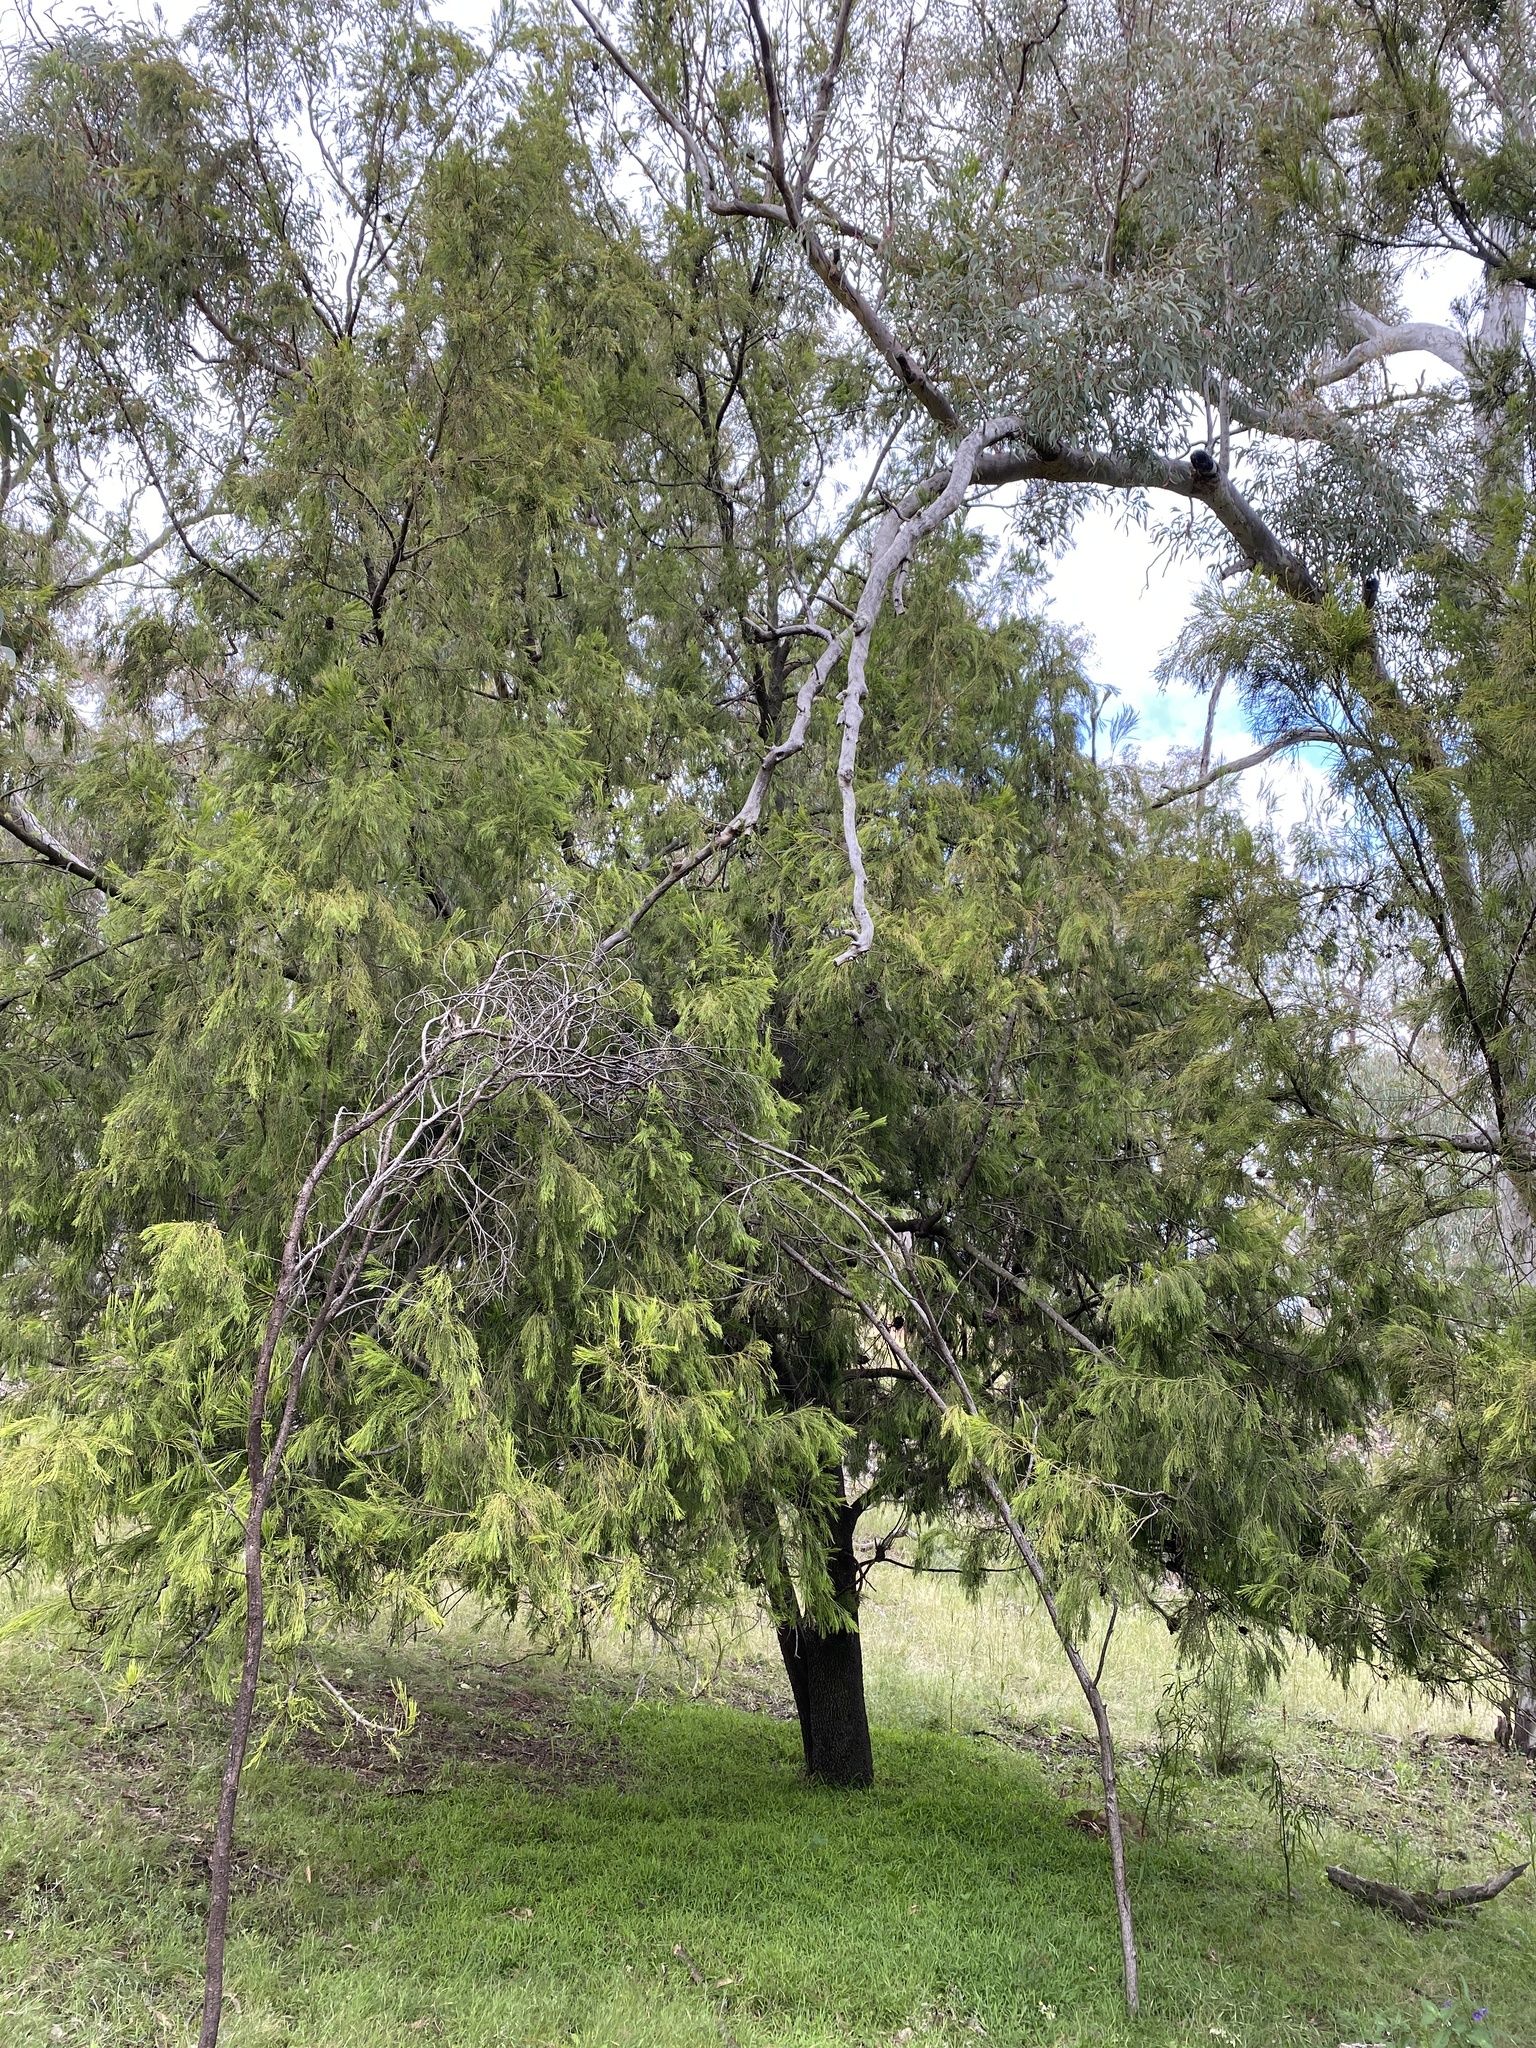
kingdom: Plantae
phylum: Tracheophyta
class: Magnoliopsida
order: Santalales
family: Santalaceae
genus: Exocarpos
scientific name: Exocarpos cupressiformis
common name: Cherry ballart
